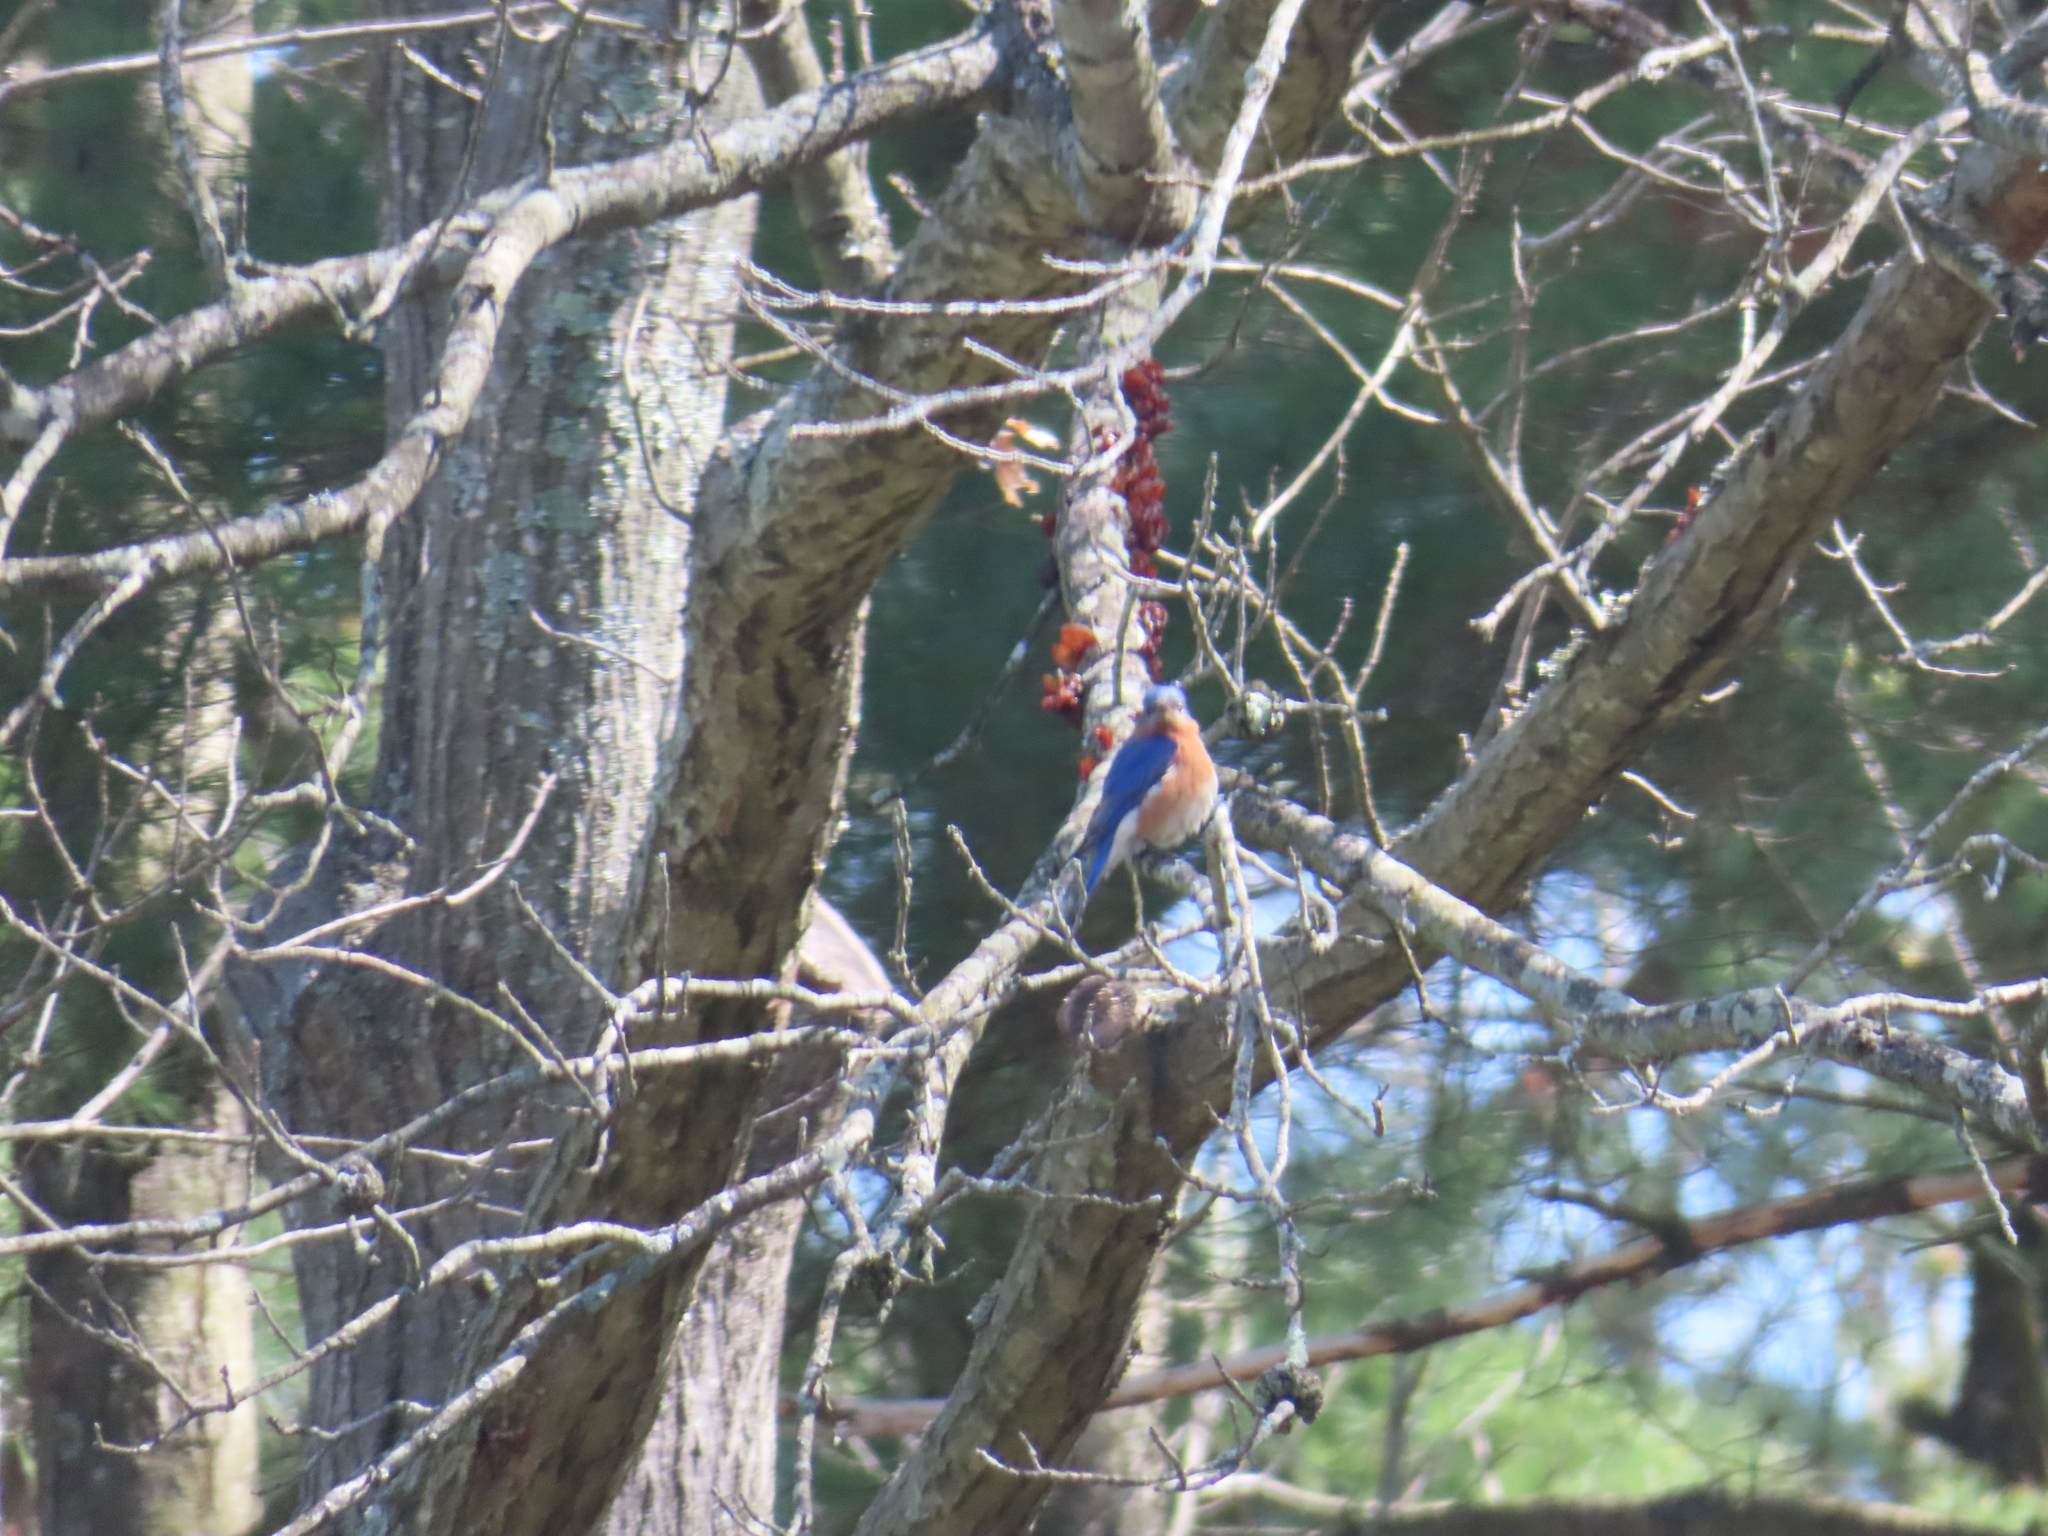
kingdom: Animalia
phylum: Chordata
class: Aves
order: Passeriformes
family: Turdidae
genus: Sialia
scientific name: Sialia sialis
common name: Eastern bluebird
